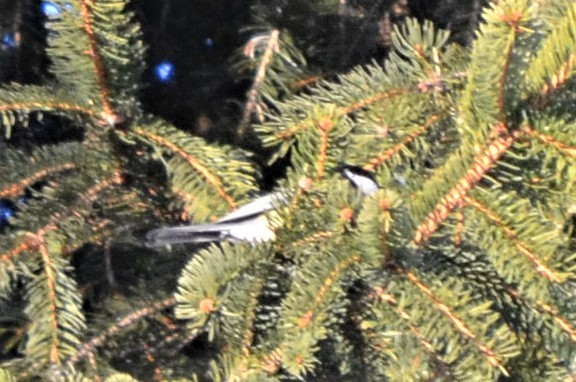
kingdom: Animalia
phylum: Chordata
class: Aves
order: Passeriformes
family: Paridae
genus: Periparus
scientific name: Periparus ater
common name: Coal tit
